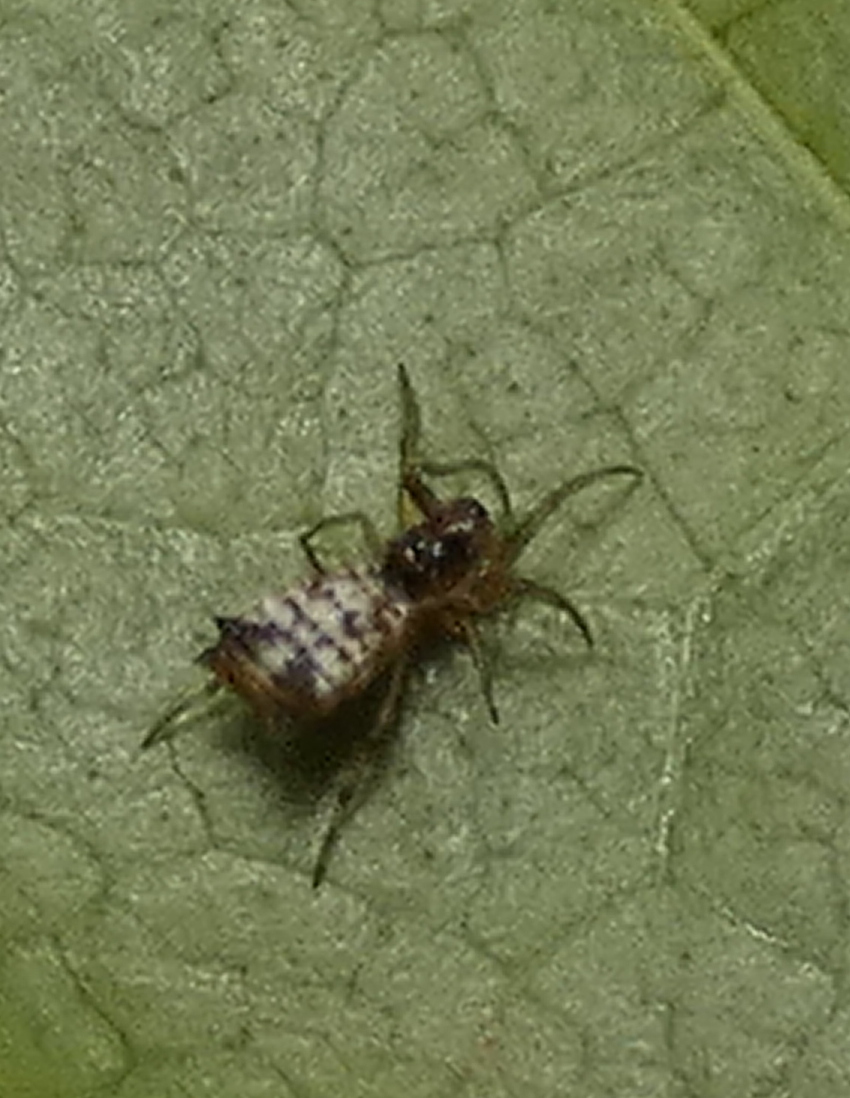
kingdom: Animalia
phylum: Arthropoda
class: Arachnida
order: Araneae
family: Araneidae
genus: Micrathena
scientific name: Micrathena picta
